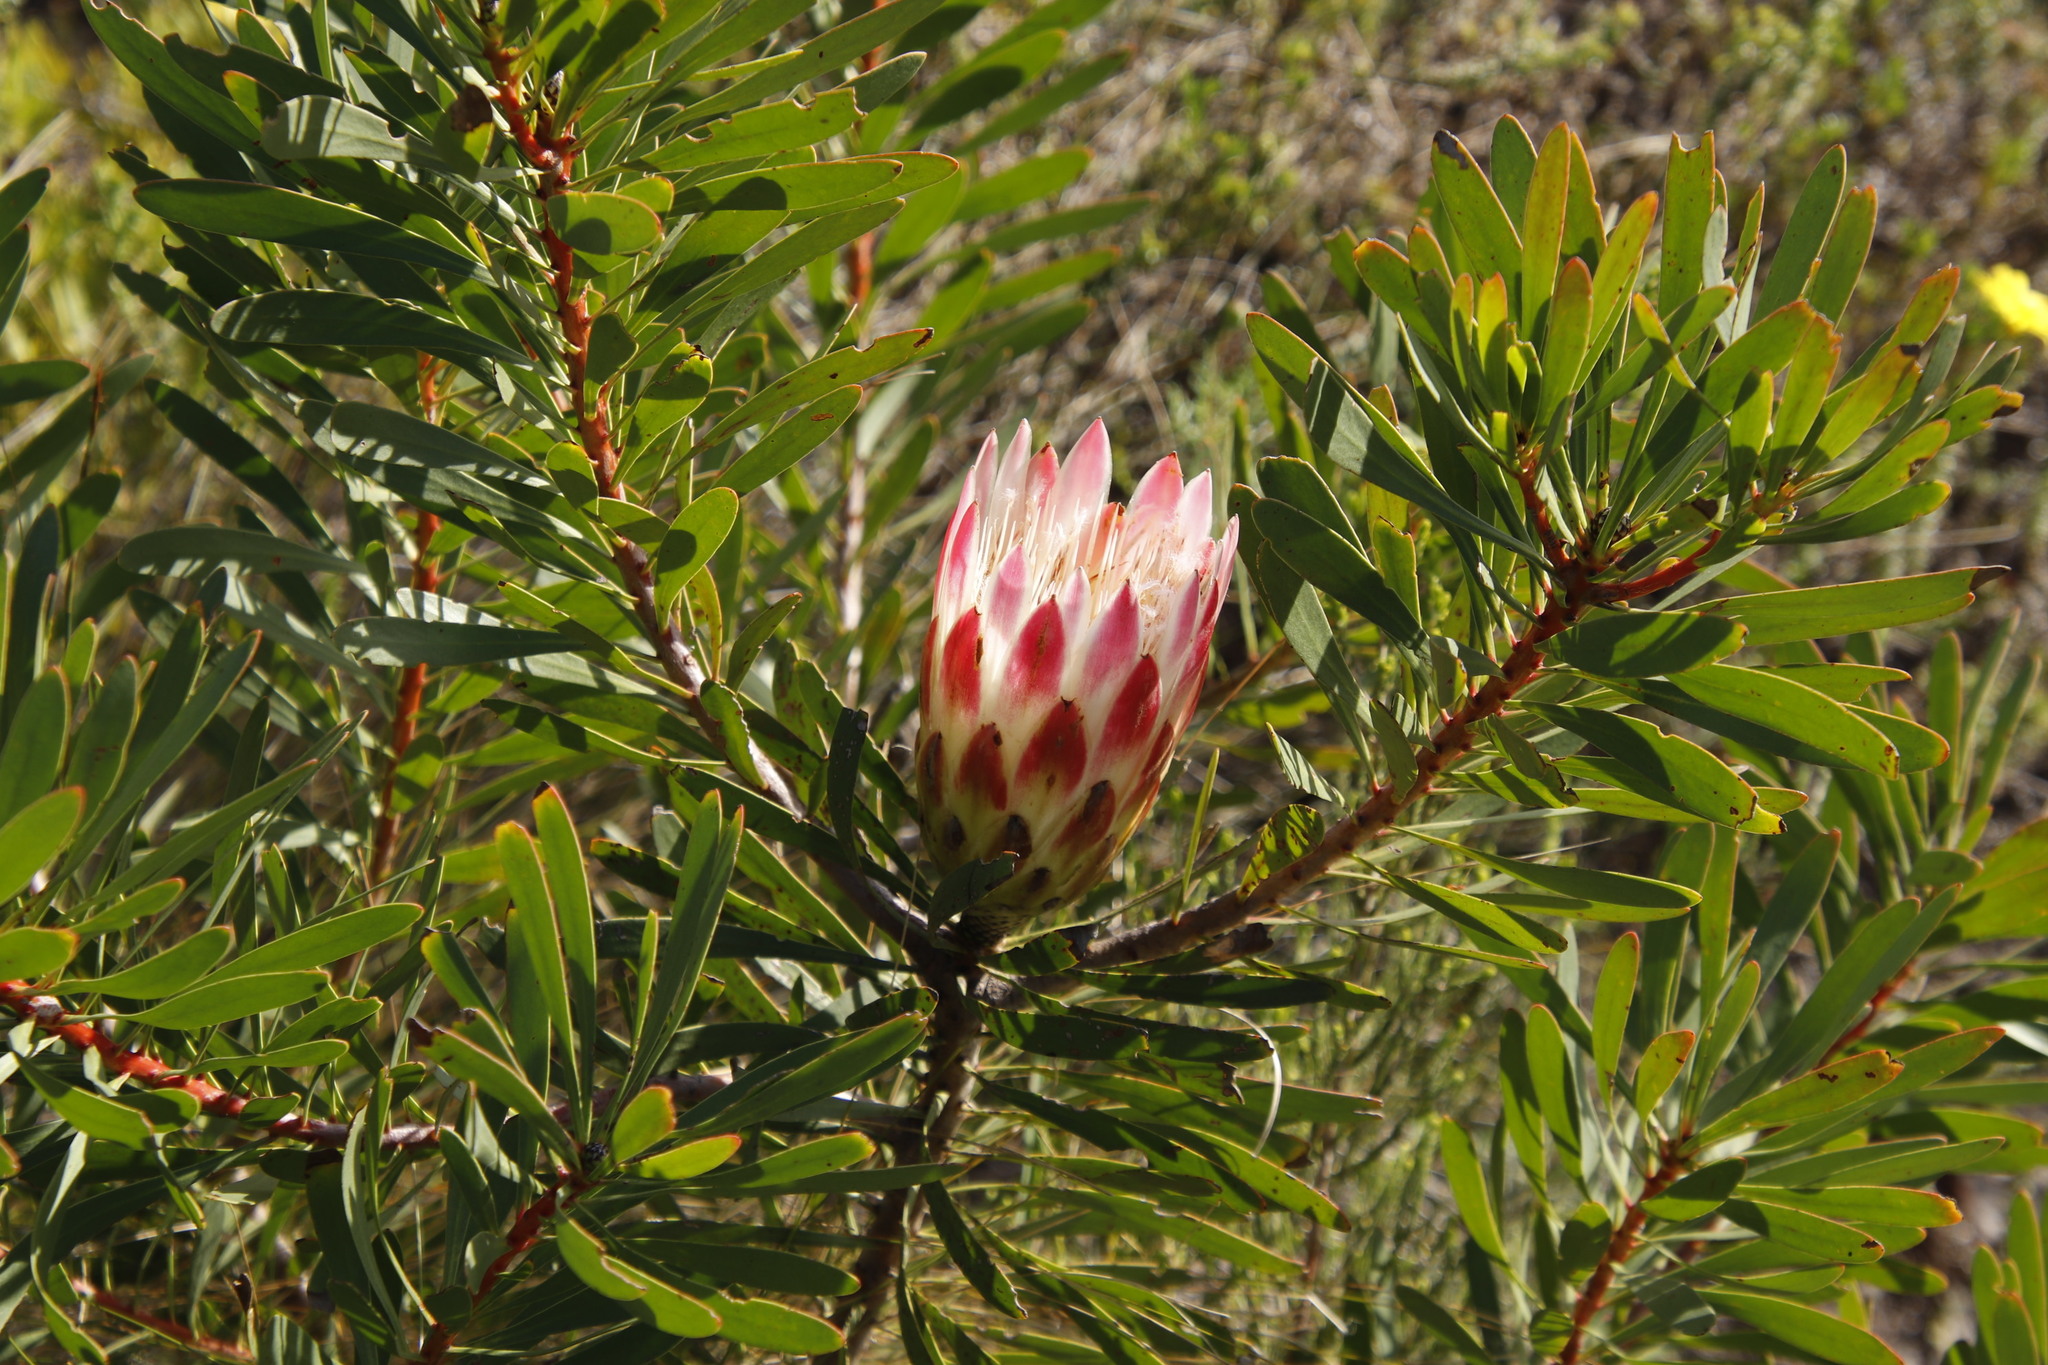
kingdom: Plantae
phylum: Tracheophyta
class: Magnoliopsida
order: Proteales
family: Proteaceae
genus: Protea
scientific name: Protea repens
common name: Sugarbush
